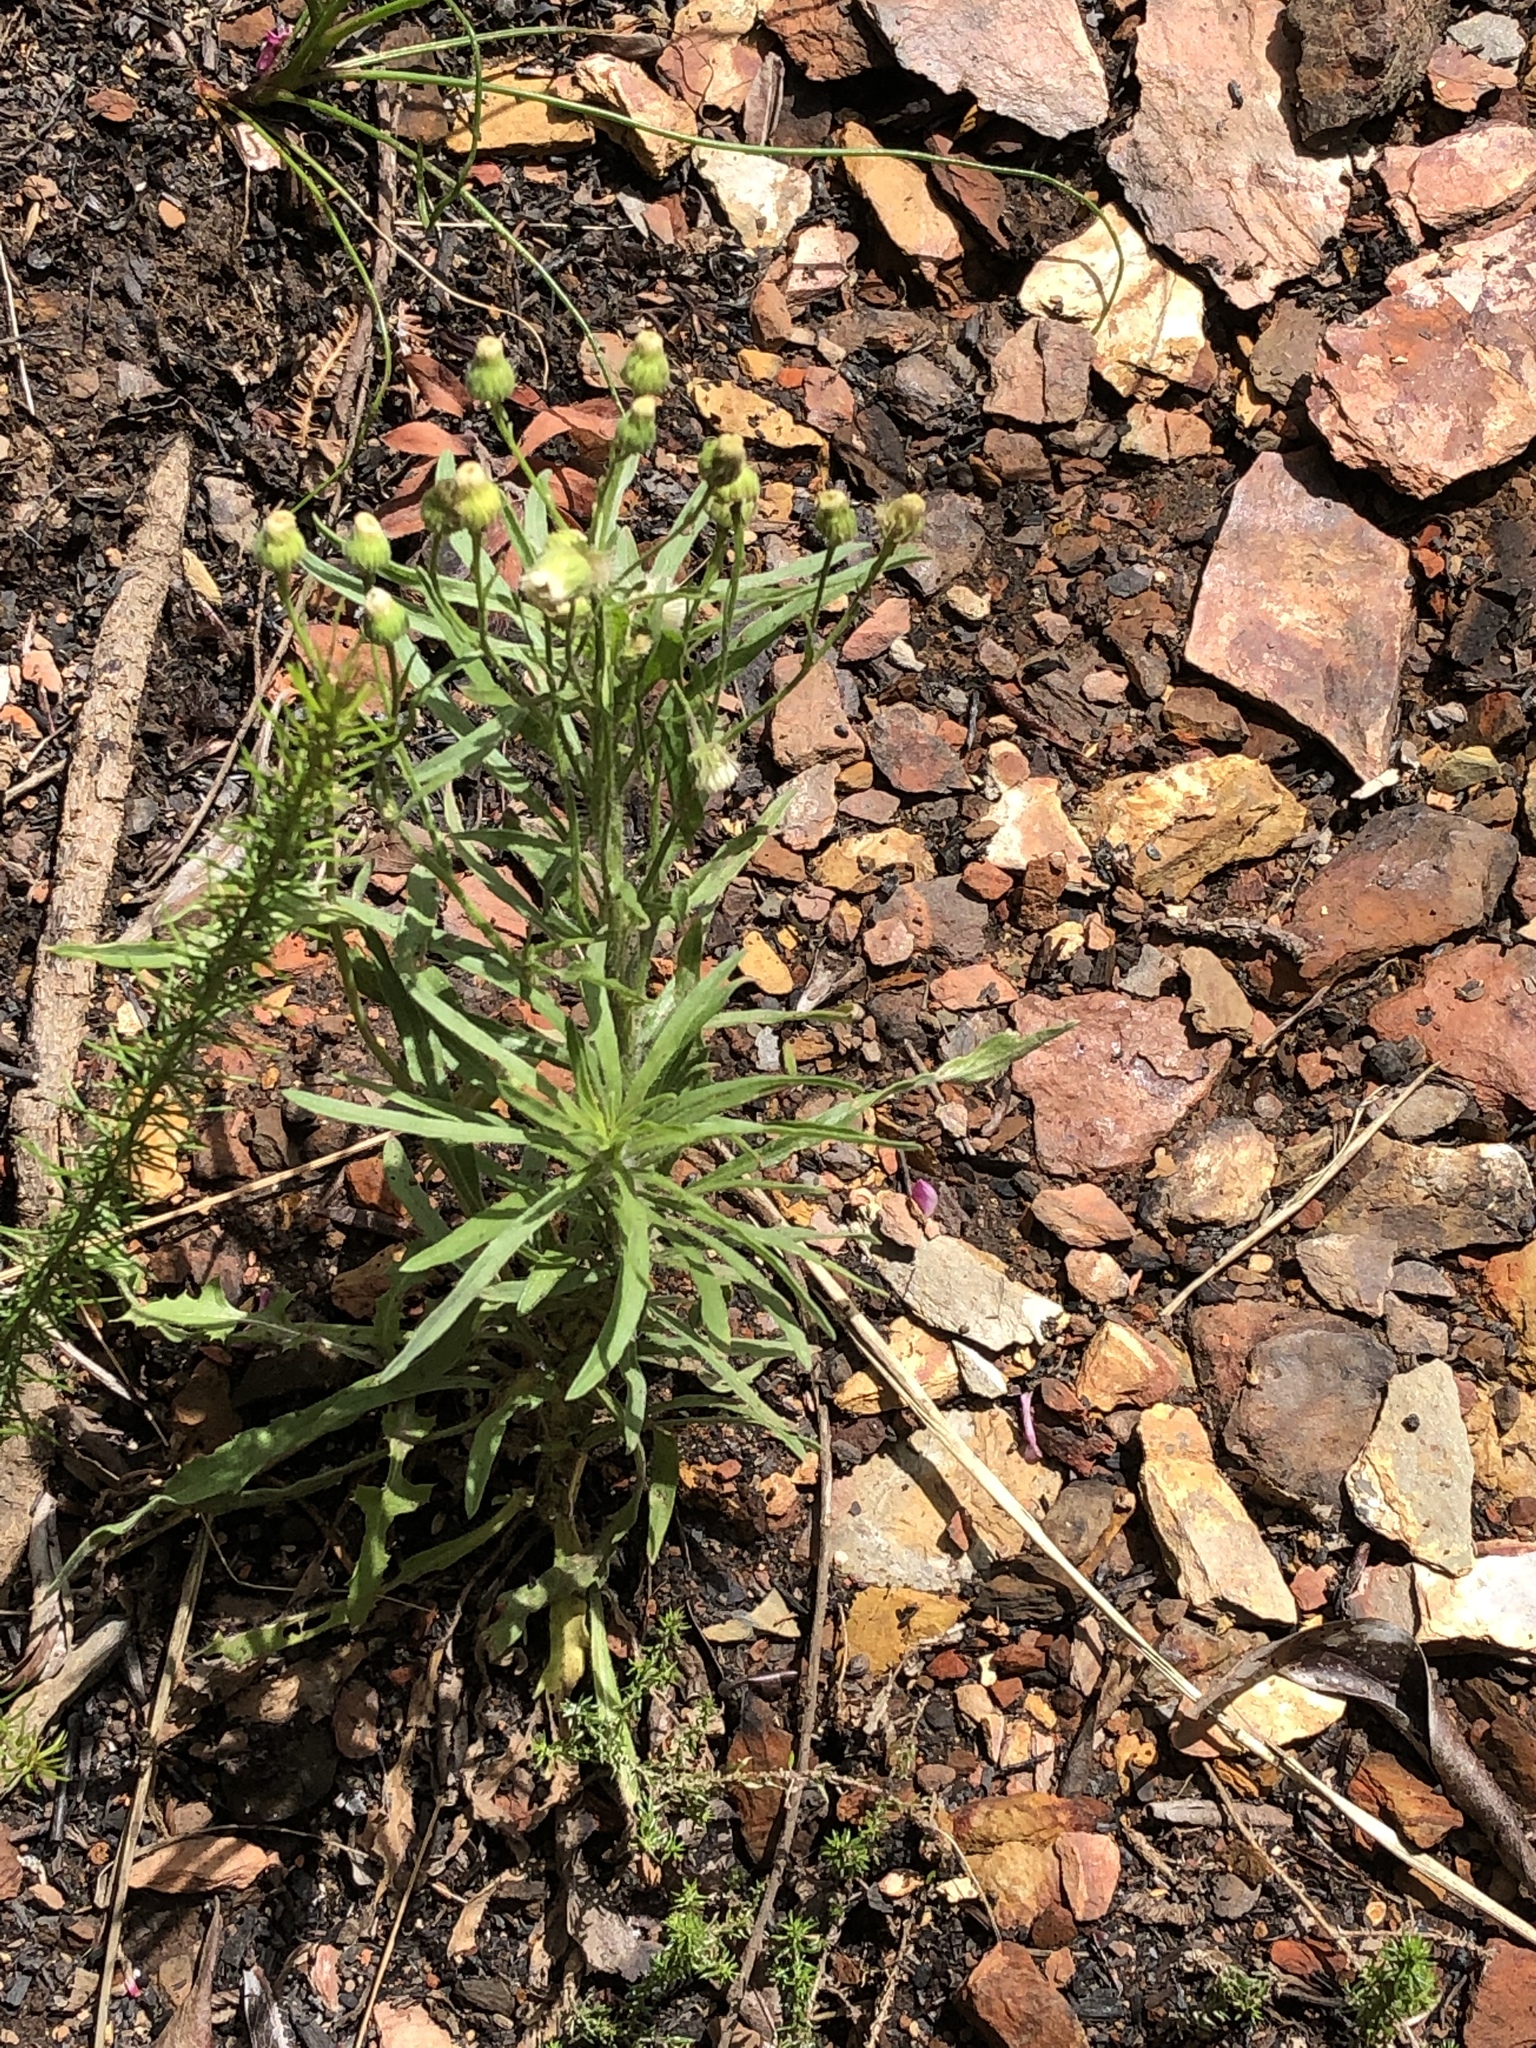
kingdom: Plantae
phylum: Tracheophyta
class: Magnoliopsida
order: Asterales
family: Asteraceae
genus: Erigeron
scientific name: Erigeron bonariensis
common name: Argentine fleabane
